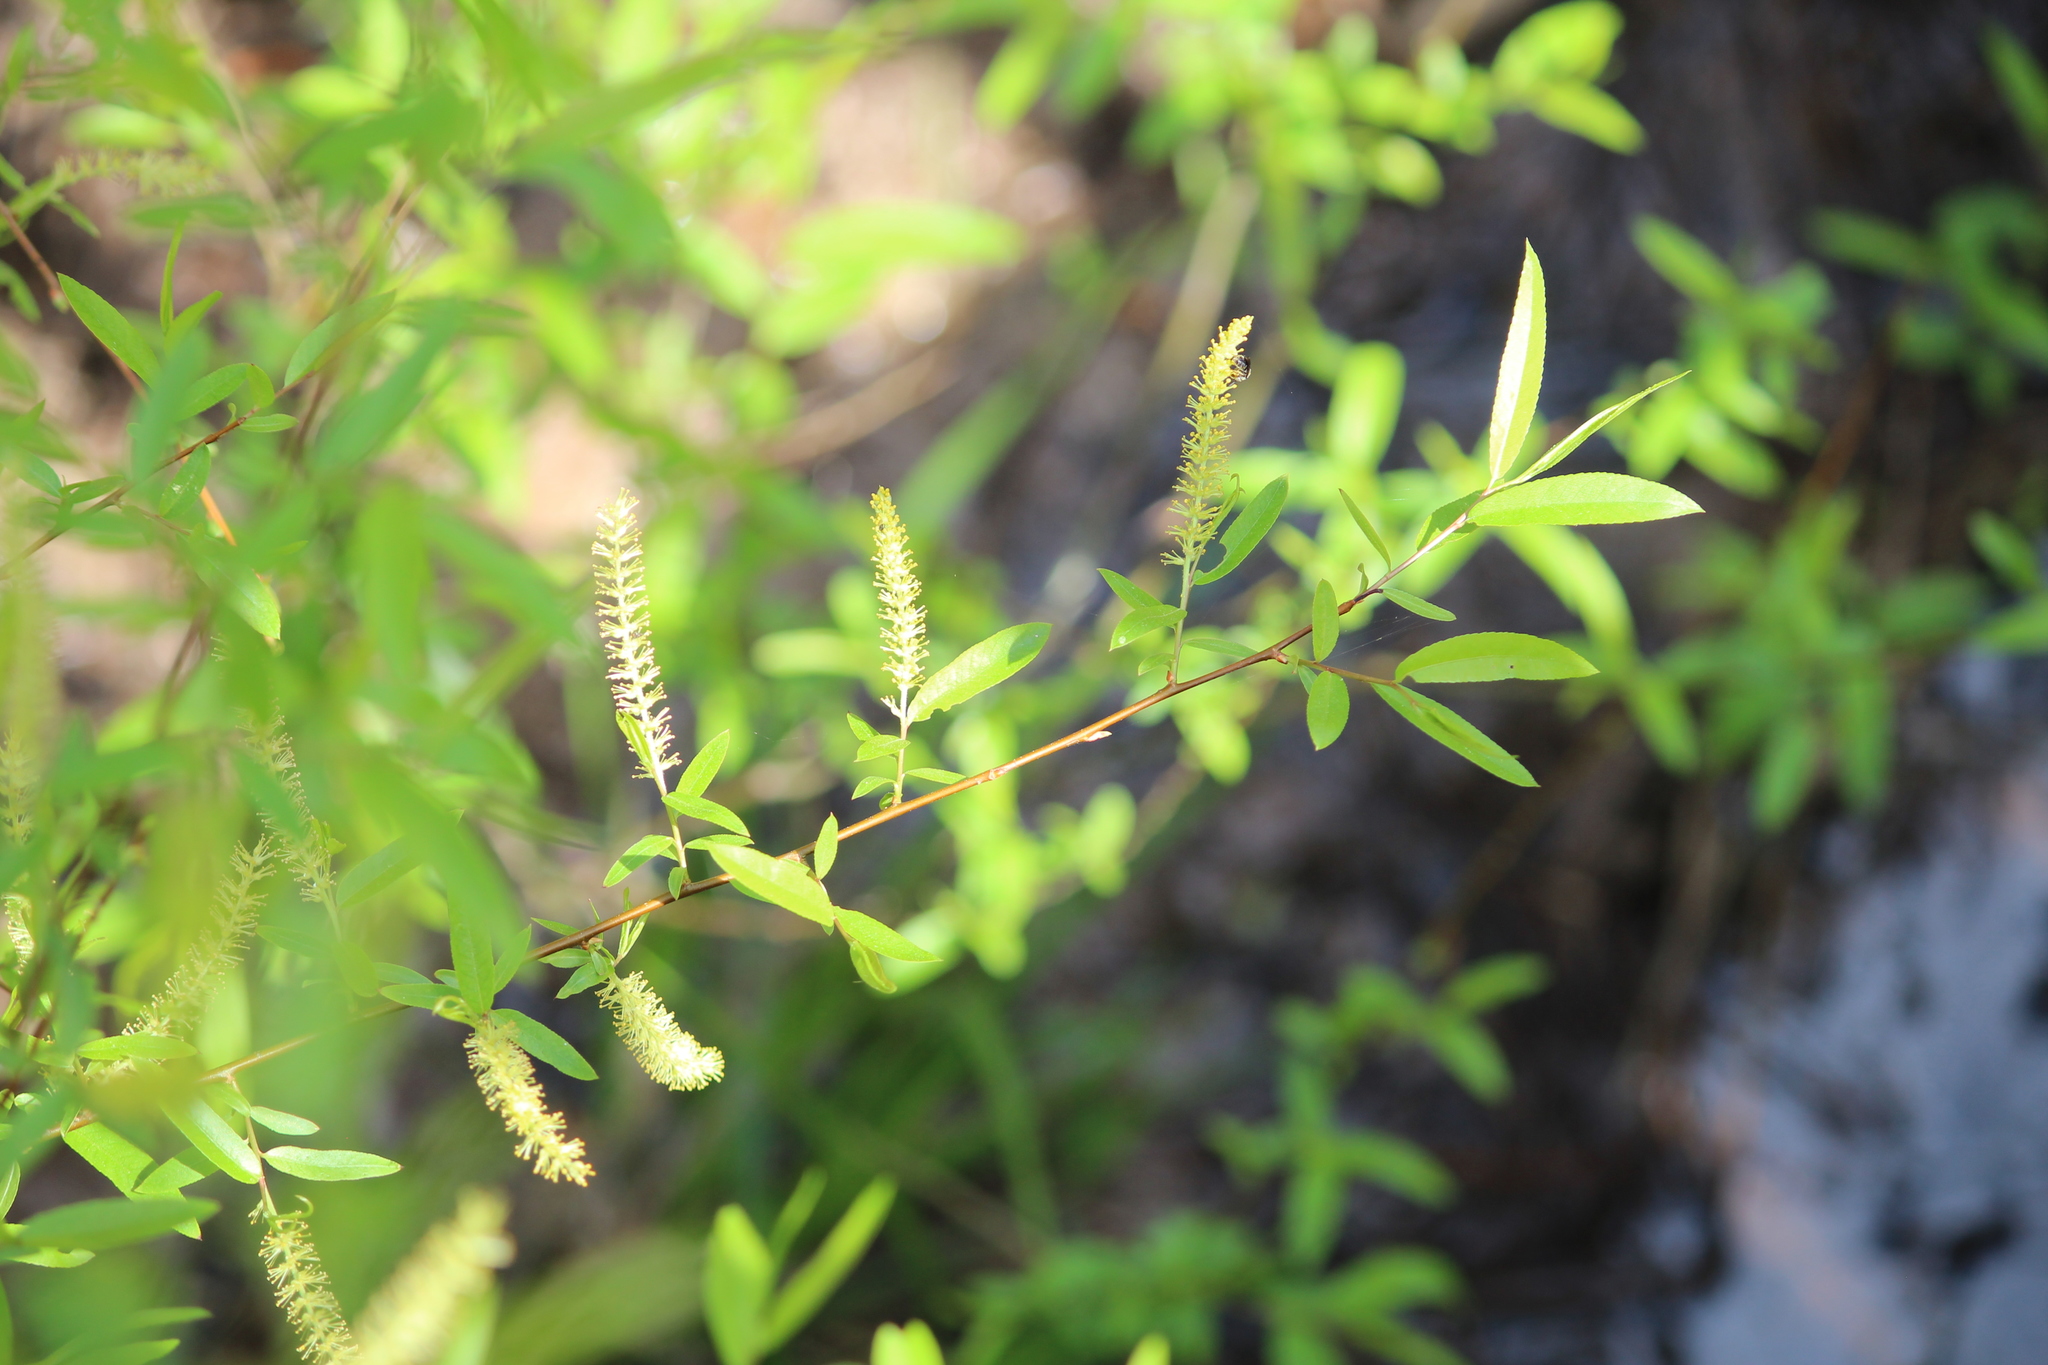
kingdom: Plantae
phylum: Tracheophyta
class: Magnoliopsida
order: Malpighiales
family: Salicaceae
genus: Salix
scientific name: Salix nigra
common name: Black willow
